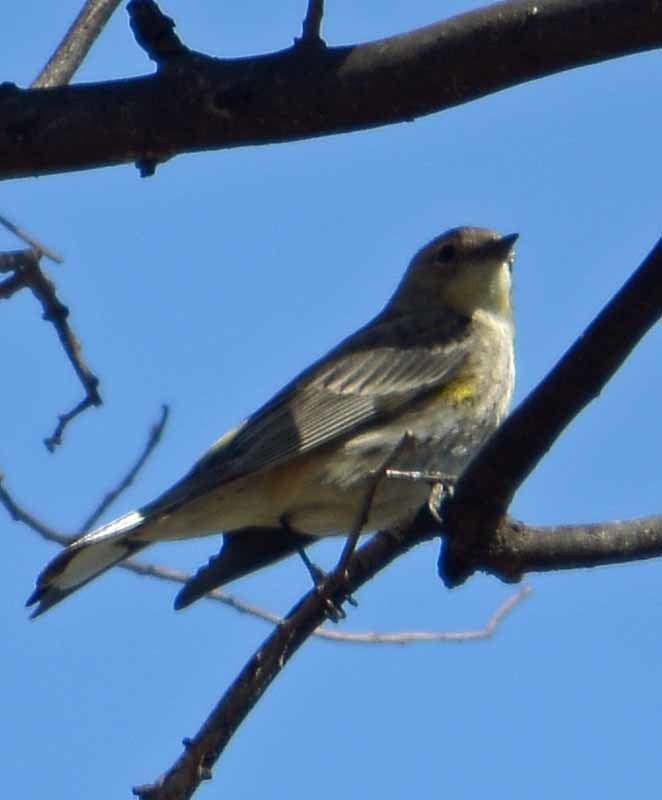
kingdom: Animalia
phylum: Chordata
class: Aves
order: Passeriformes
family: Parulidae
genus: Setophaga
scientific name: Setophaga coronata
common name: Myrtle warbler
